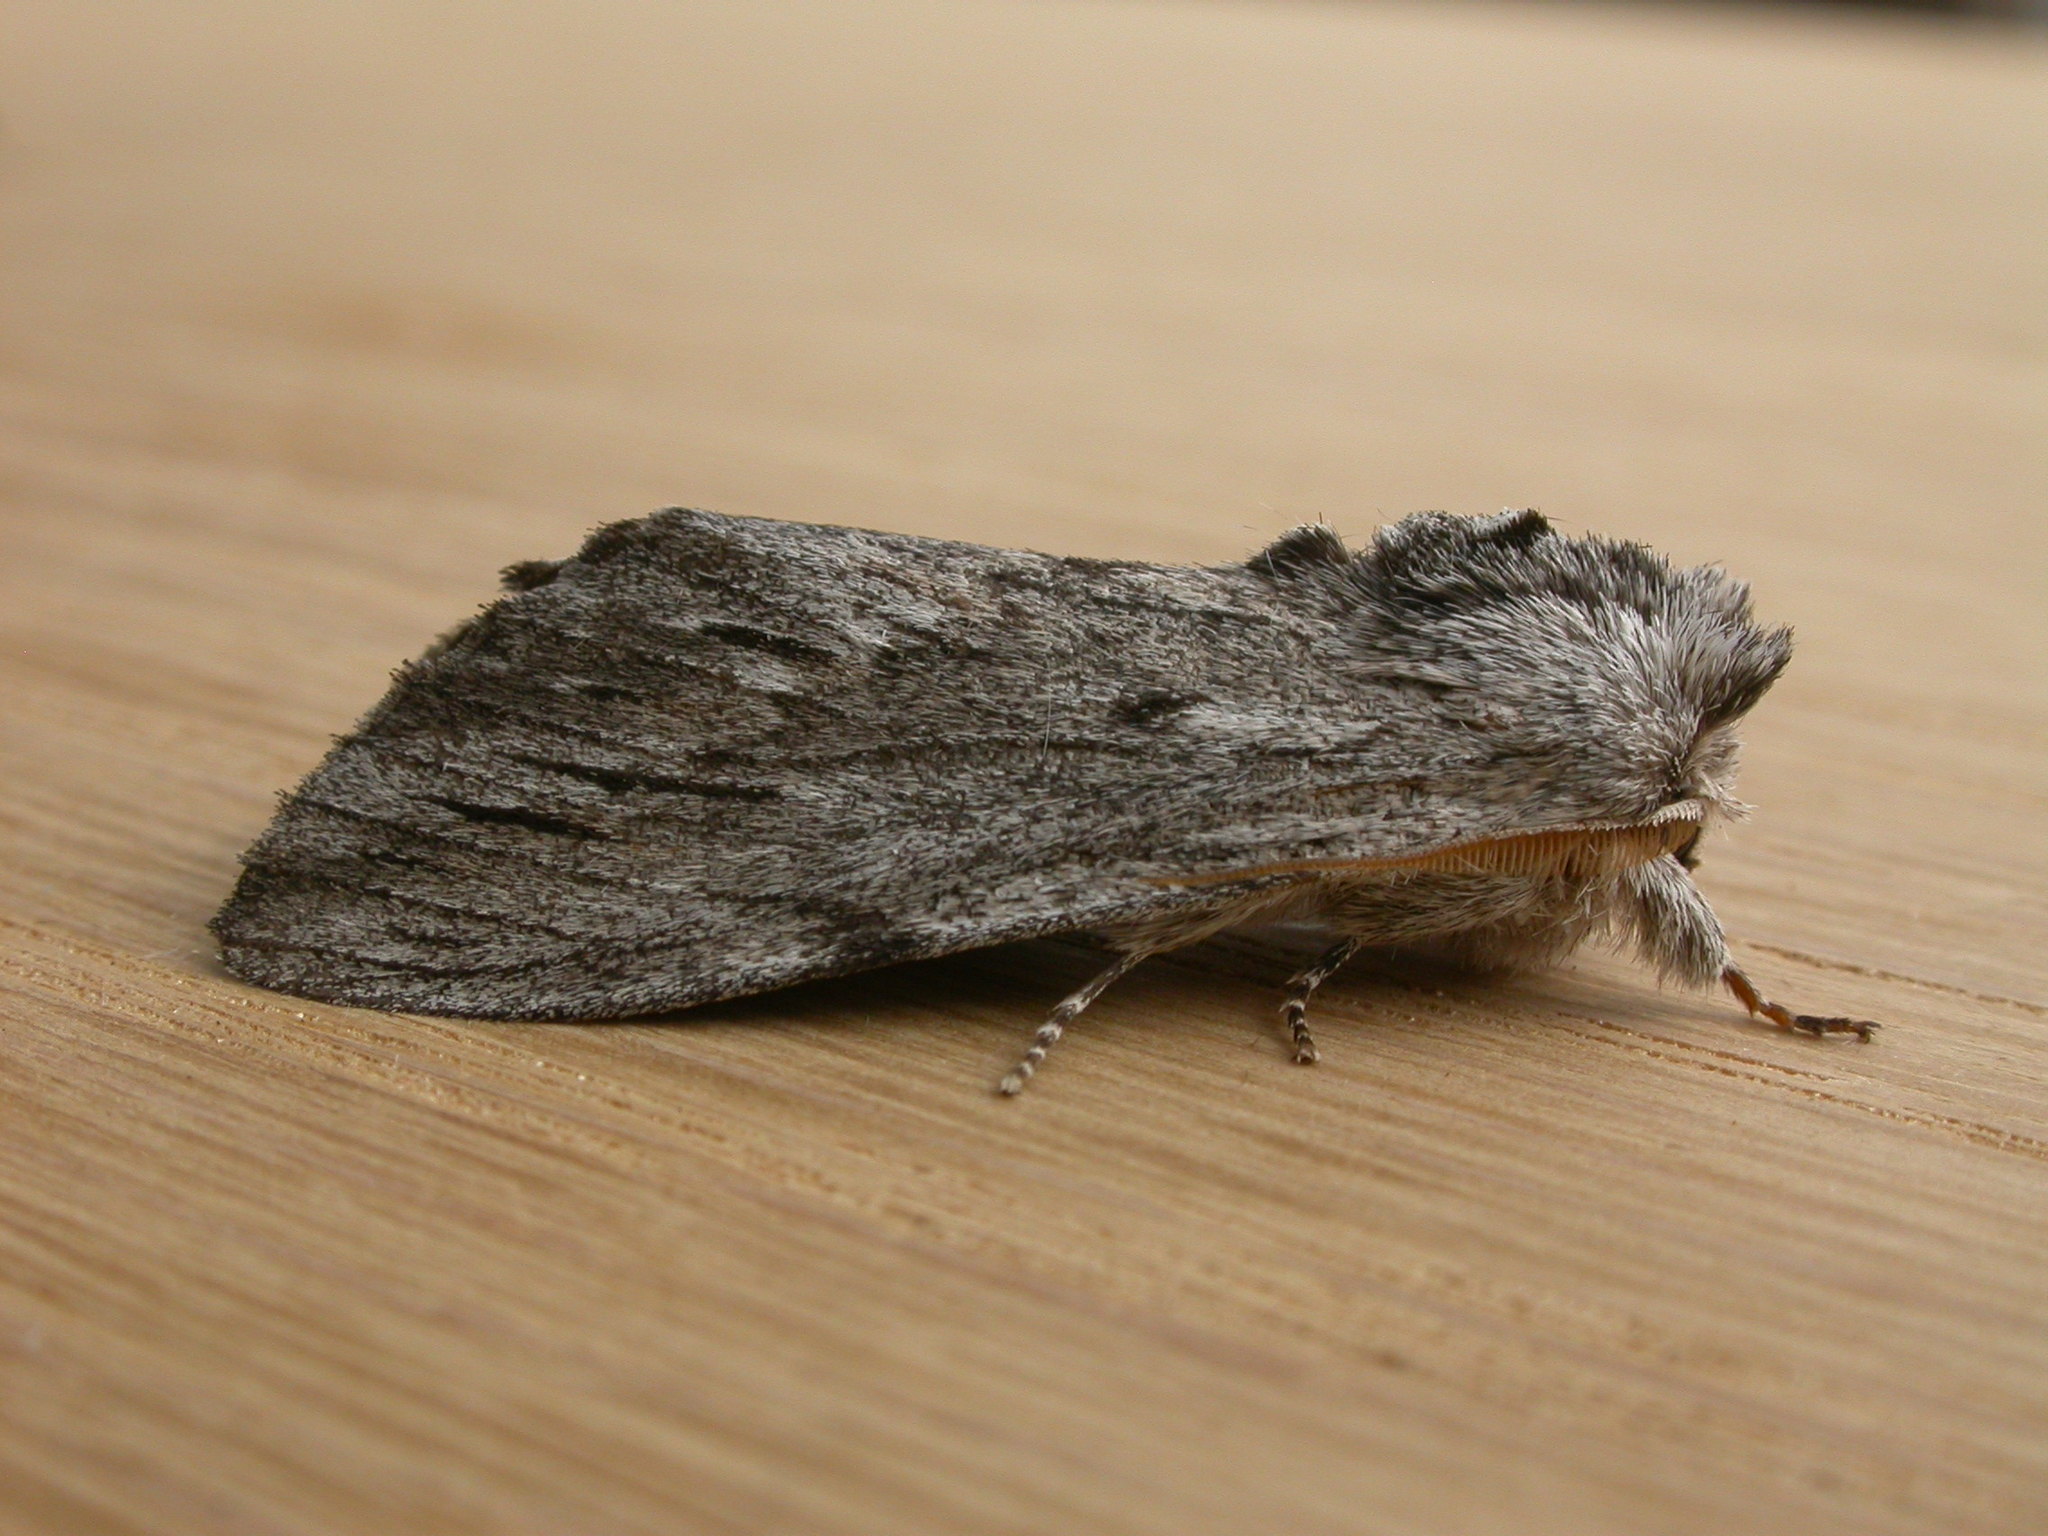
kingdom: Animalia
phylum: Arthropoda
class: Insecta
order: Lepidoptera
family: Notodontidae
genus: Destolmia
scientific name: Destolmia lineata
